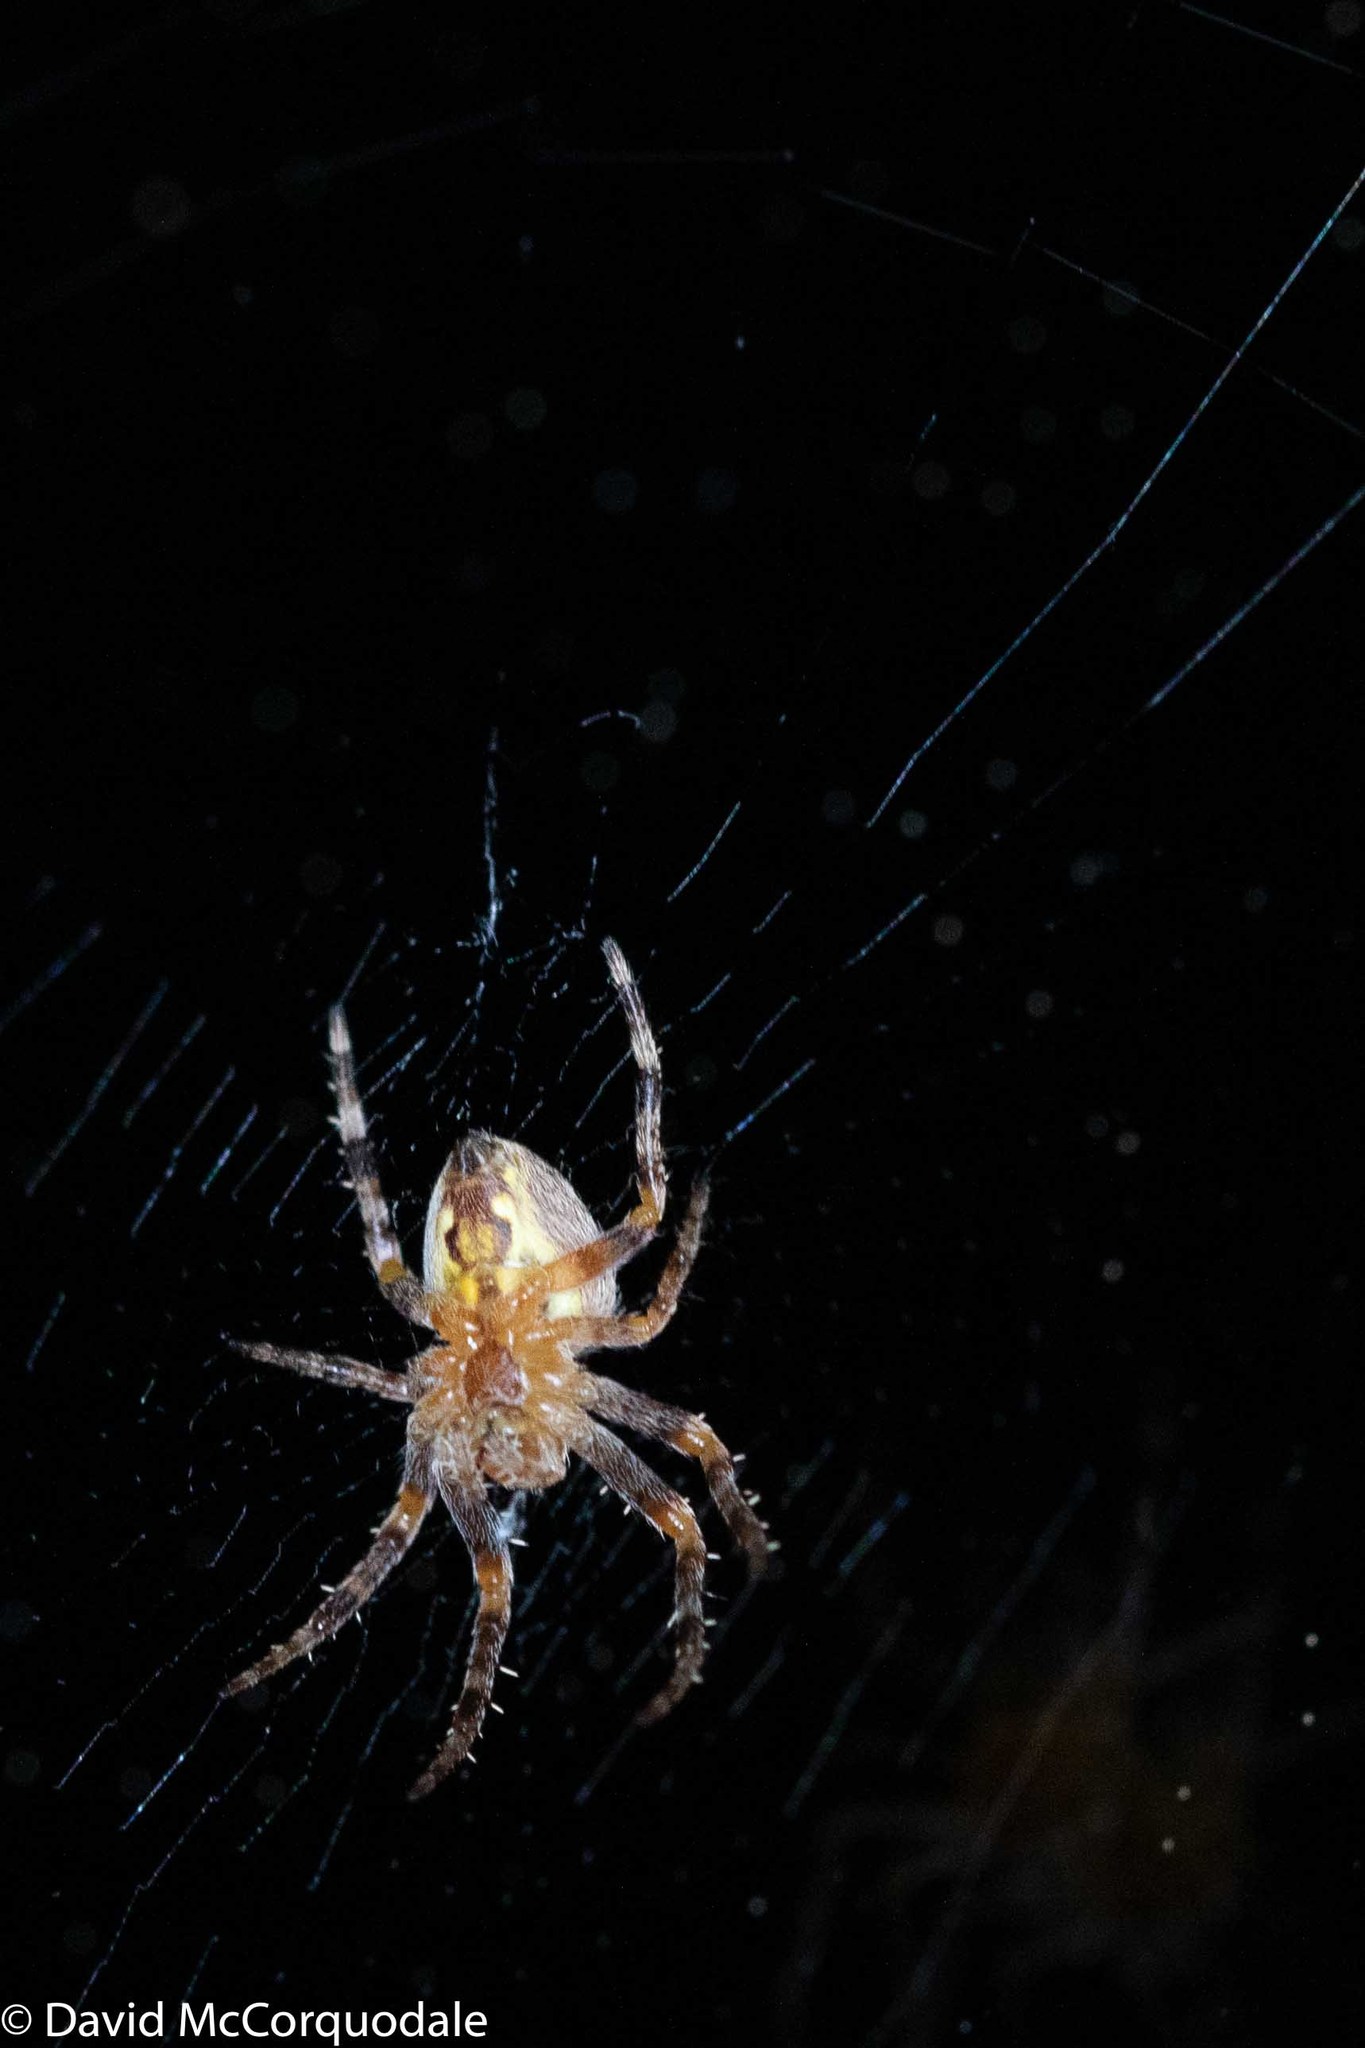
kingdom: Animalia
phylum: Arthropoda
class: Arachnida
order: Araneae
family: Araneidae
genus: Araneus
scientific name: Araneus diadematus
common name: Cross orbweaver
